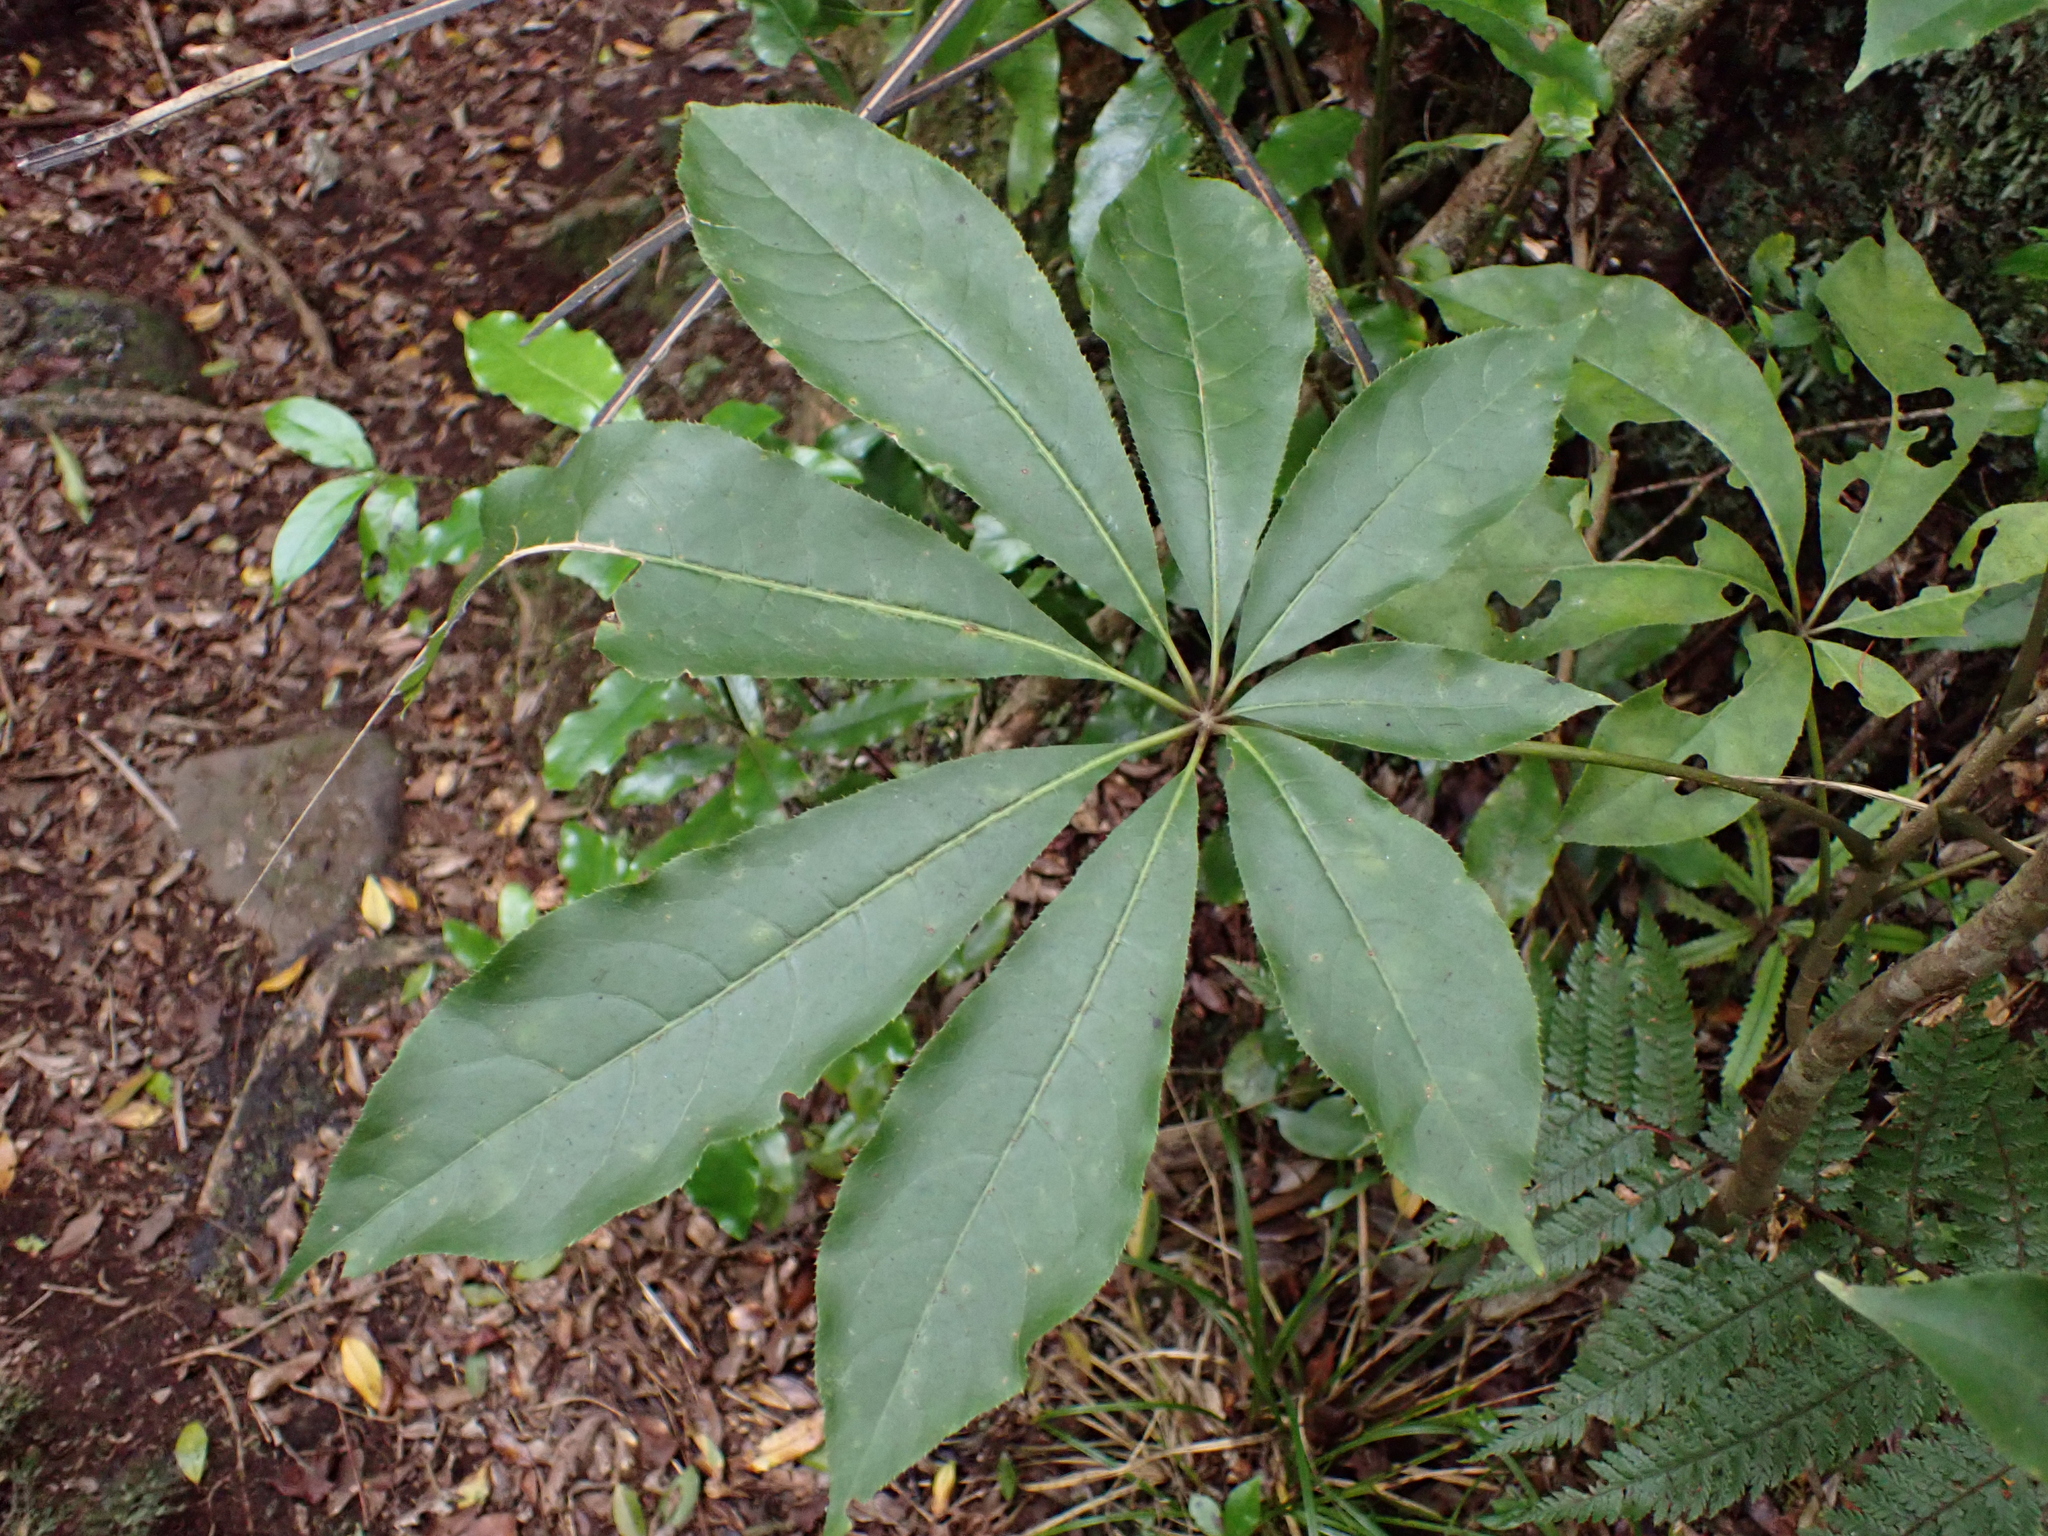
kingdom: Plantae
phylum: Tracheophyta
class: Magnoliopsida
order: Apiales
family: Araliaceae
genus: Schefflera
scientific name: Schefflera digitata
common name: Pate
